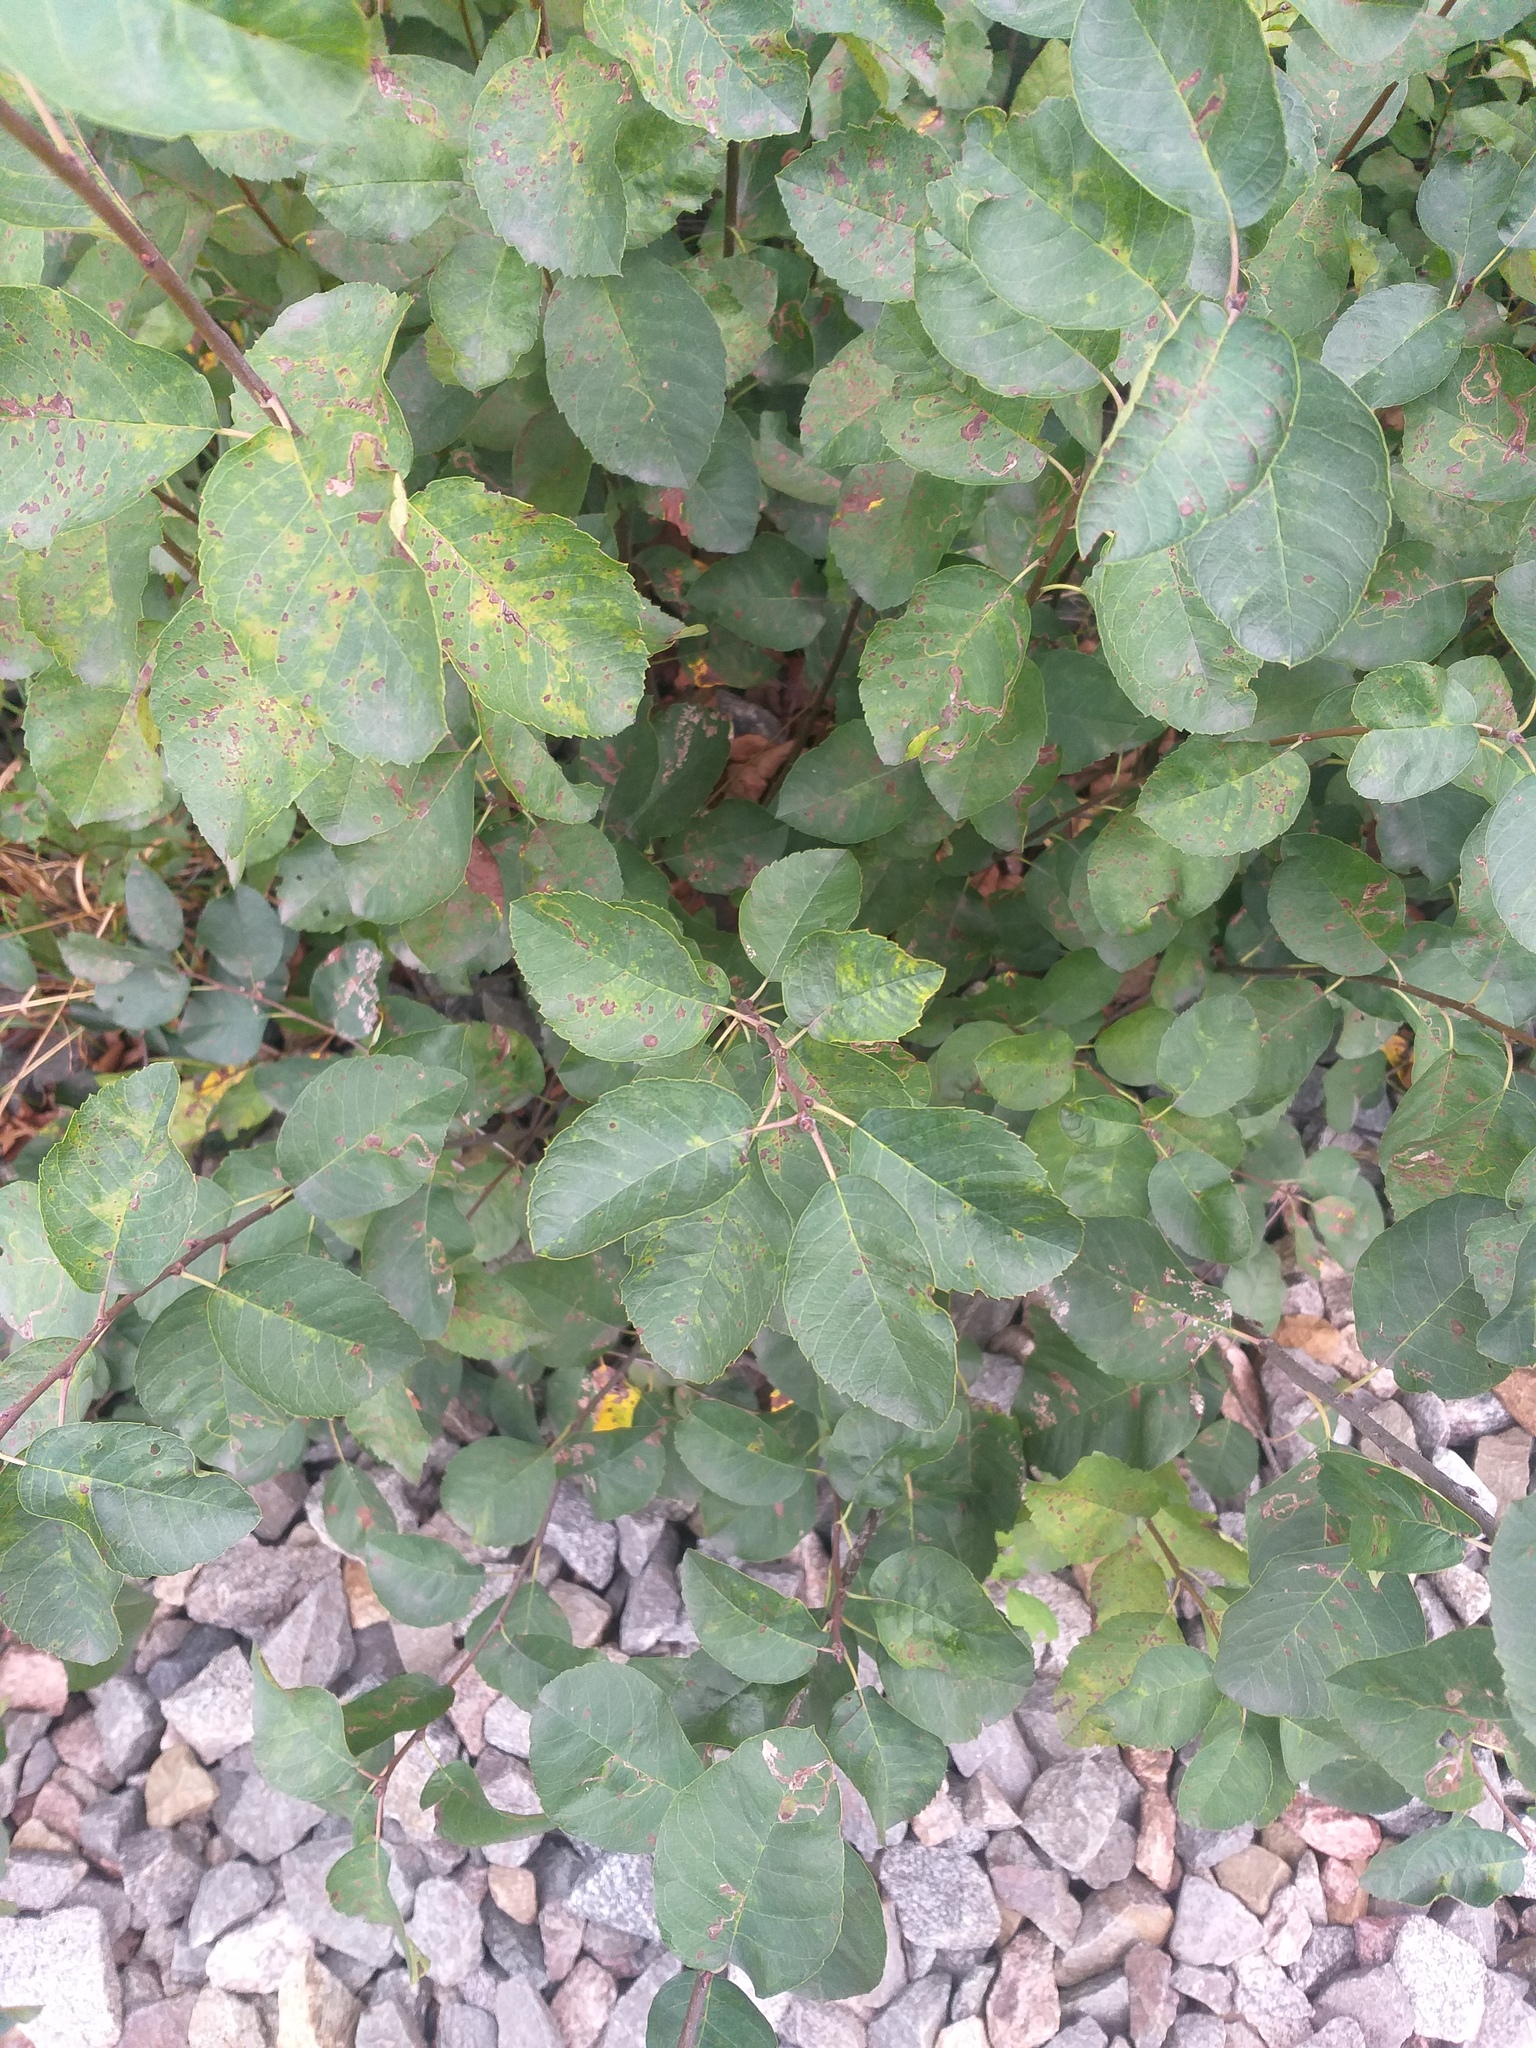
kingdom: Plantae
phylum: Tracheophyta
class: Magnoliopsida
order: Rosales
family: Rosaceae
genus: Amelanchier
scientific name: Amelanchier
